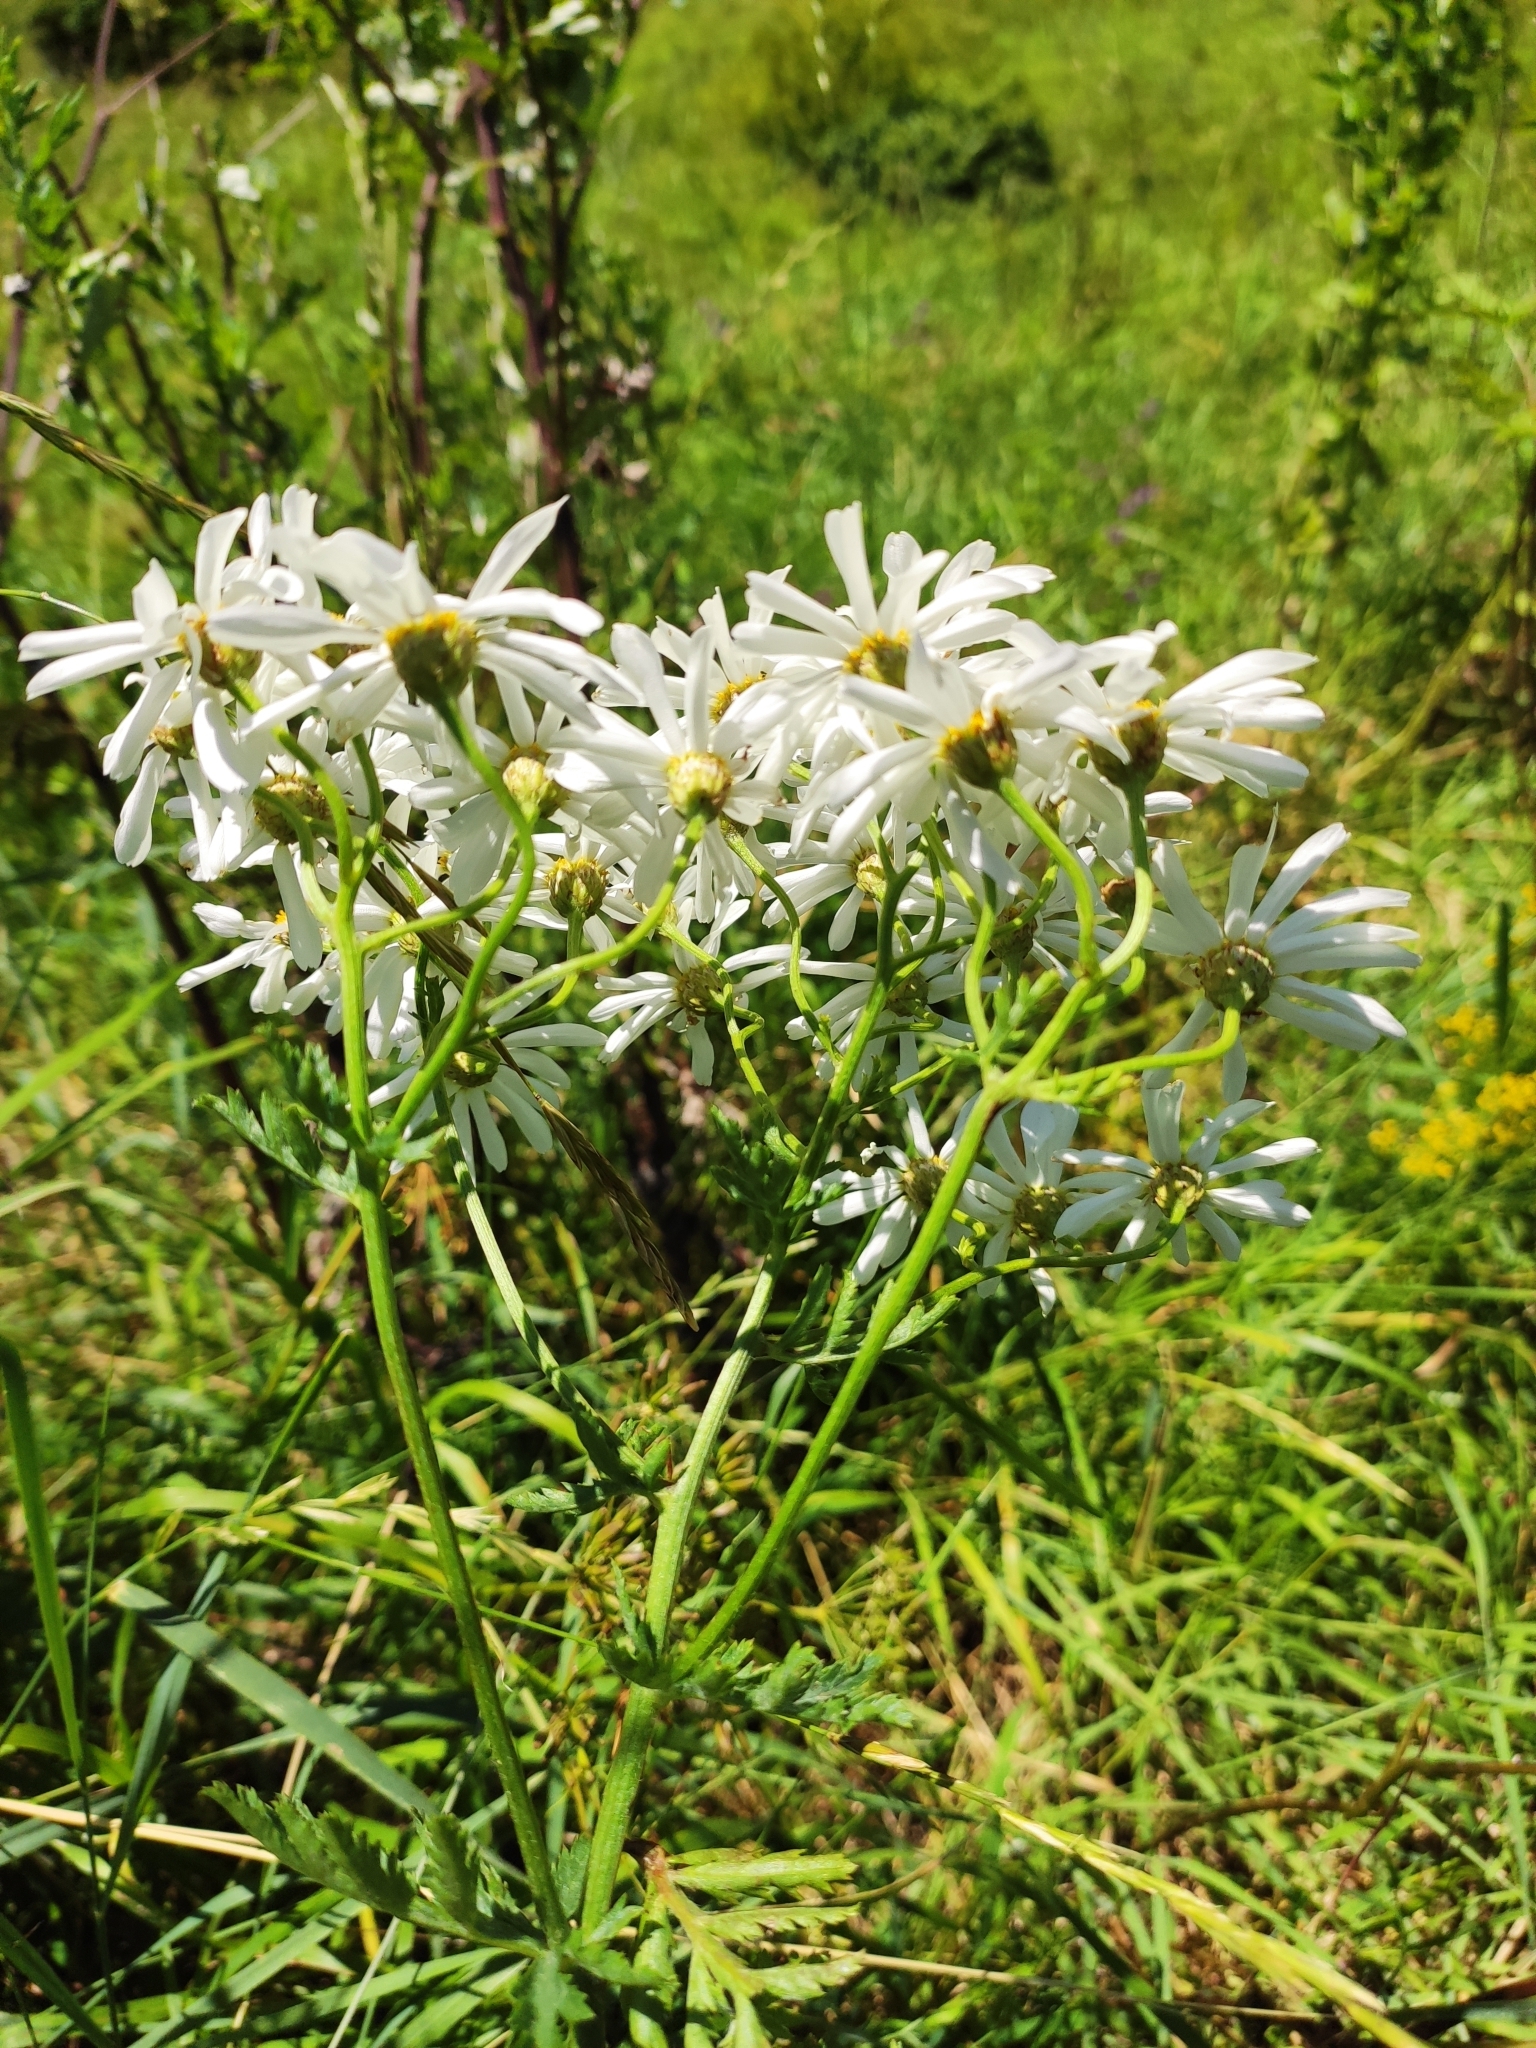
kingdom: Plantae
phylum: Tracheophyta
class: Magnoliopsida
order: Asterales
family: Asteraceae
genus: Tanacetum
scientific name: Tanacetum corymbosum
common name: Scentless feverfew
